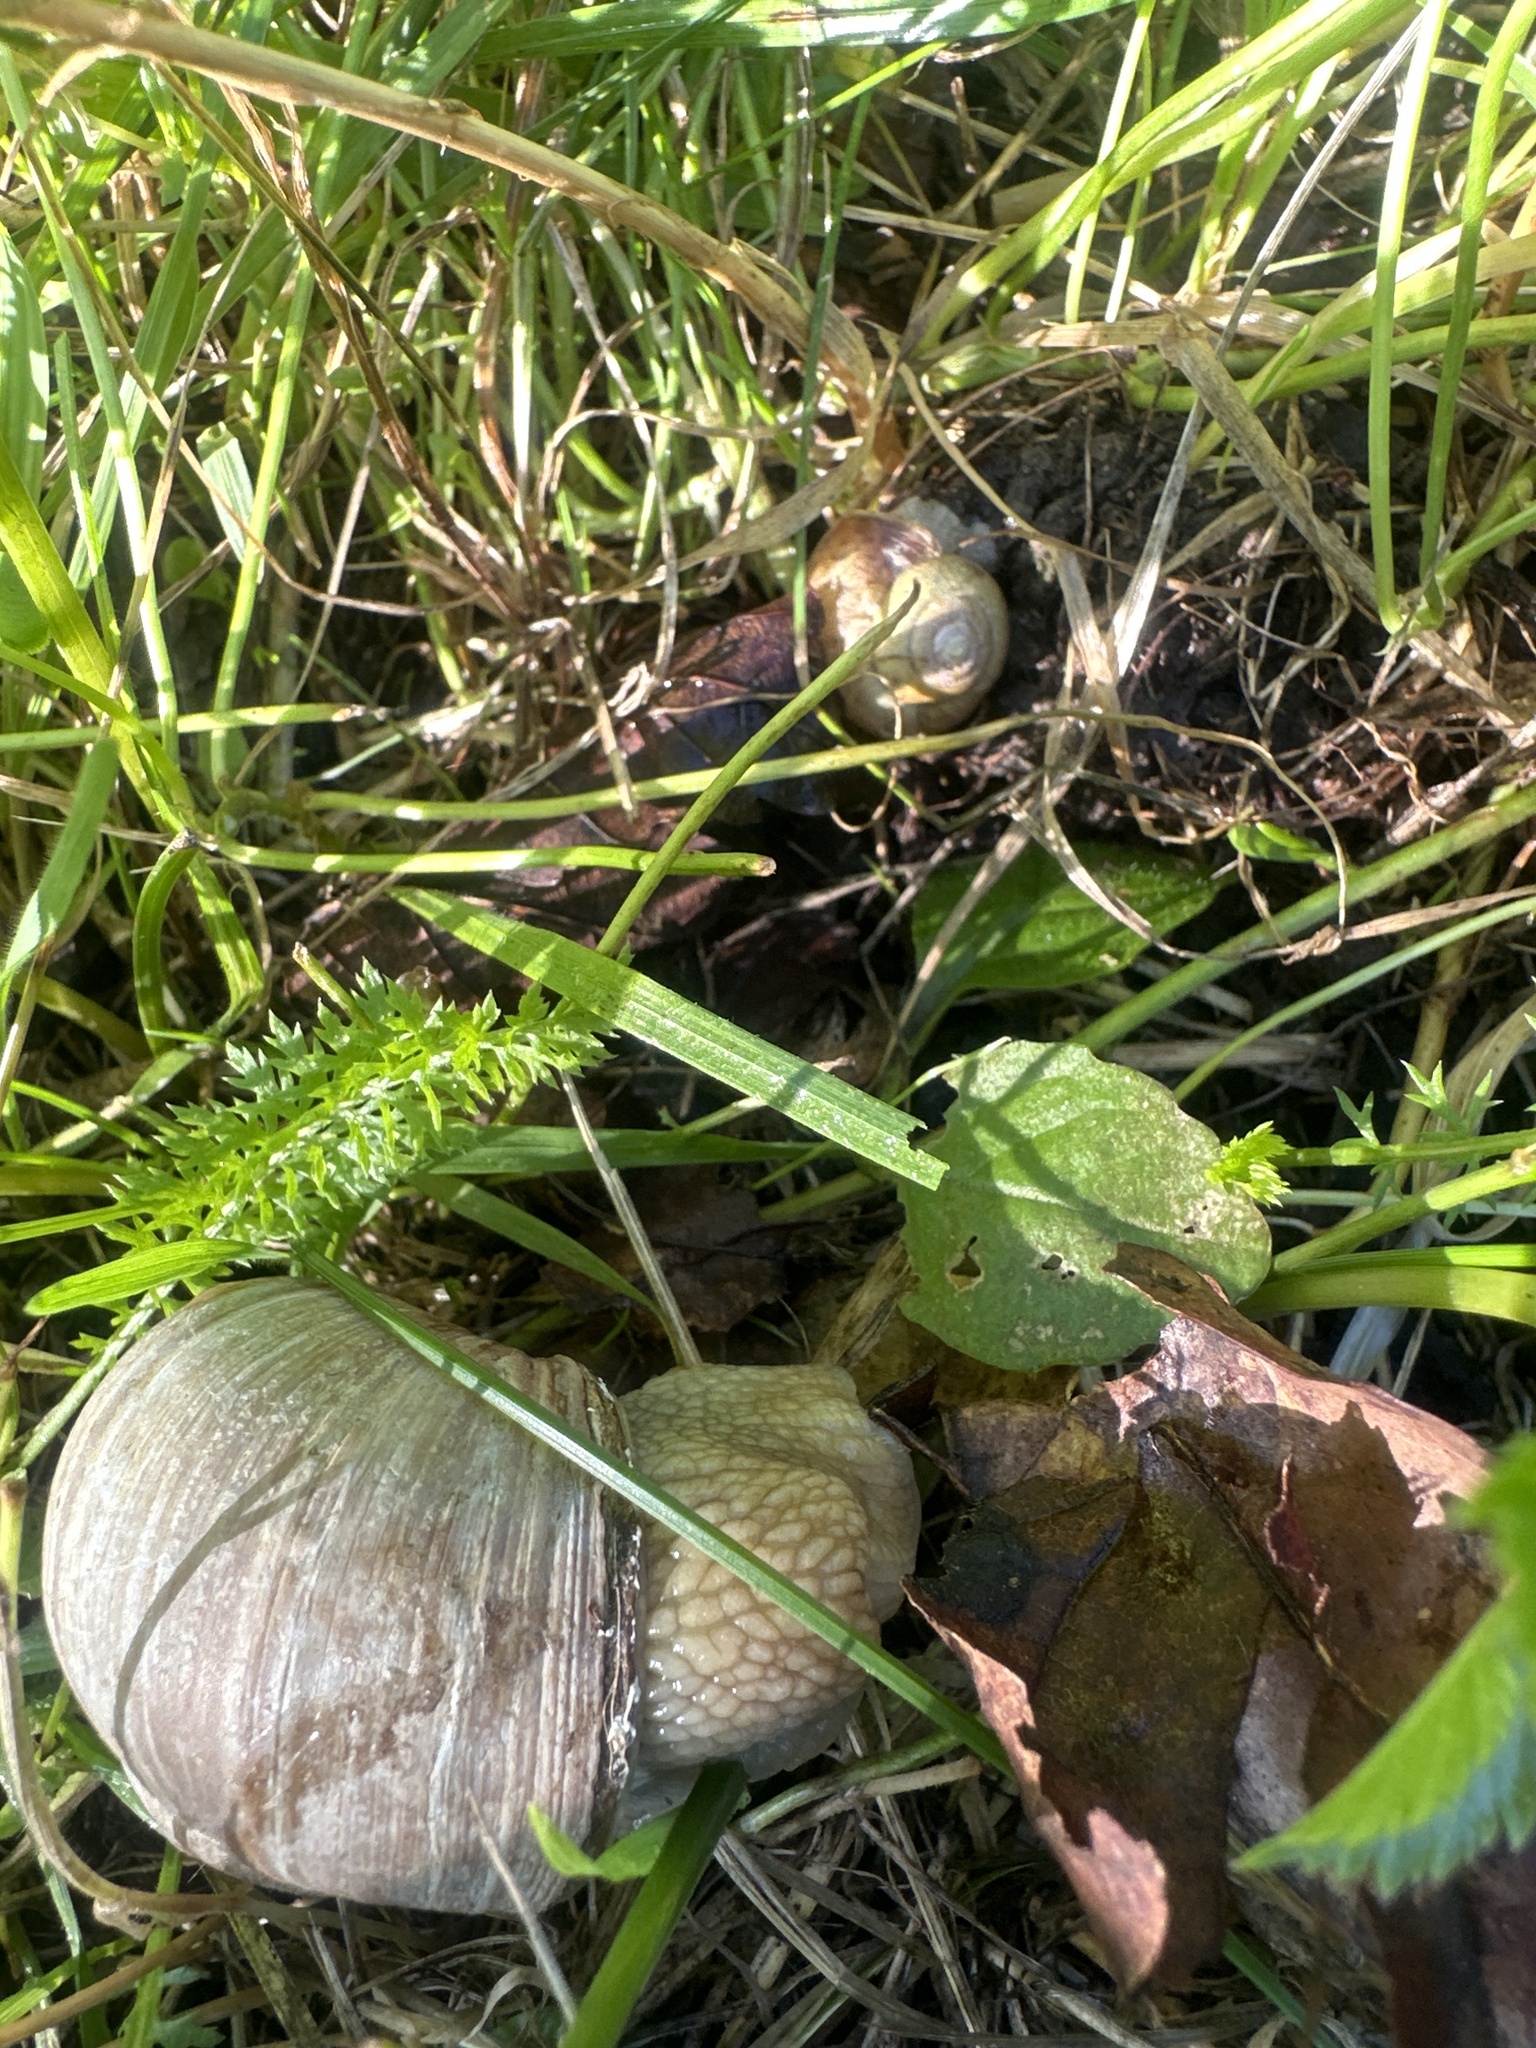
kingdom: Animalia
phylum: Mollusca
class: Gastropoda
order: Stylommatophora
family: Helicidae
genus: Helix
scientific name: Helix pomatia
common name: Roman snail
